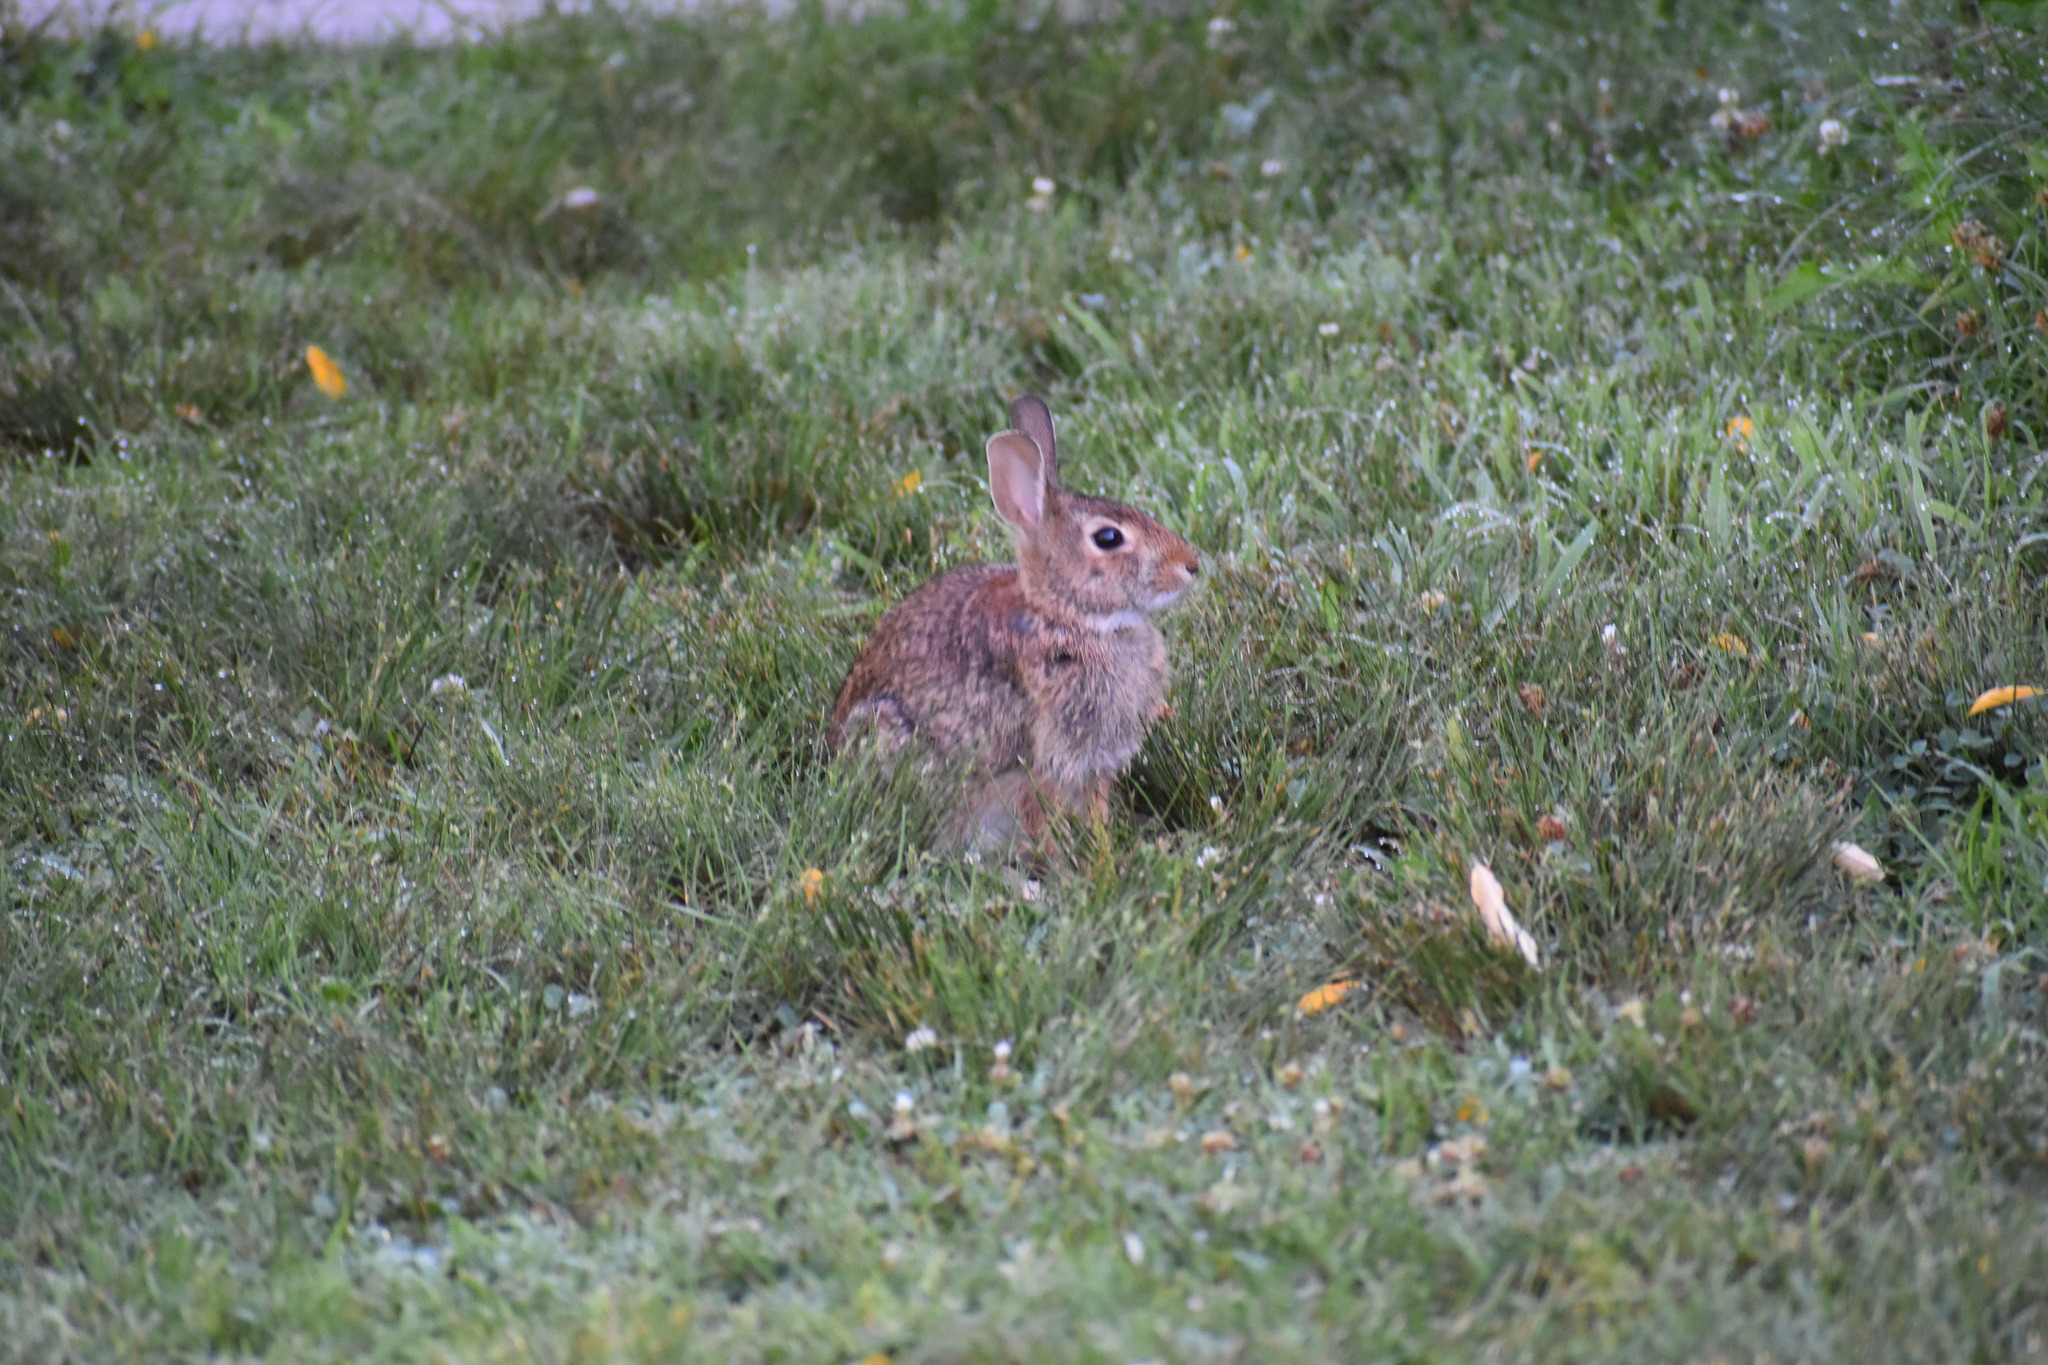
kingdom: Animalia
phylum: Chordata
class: Mammalia
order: Lagomorpha
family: Leporidae
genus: Sylvilagus
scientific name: Sylvilagus floridanus
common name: Eastern cottontail
